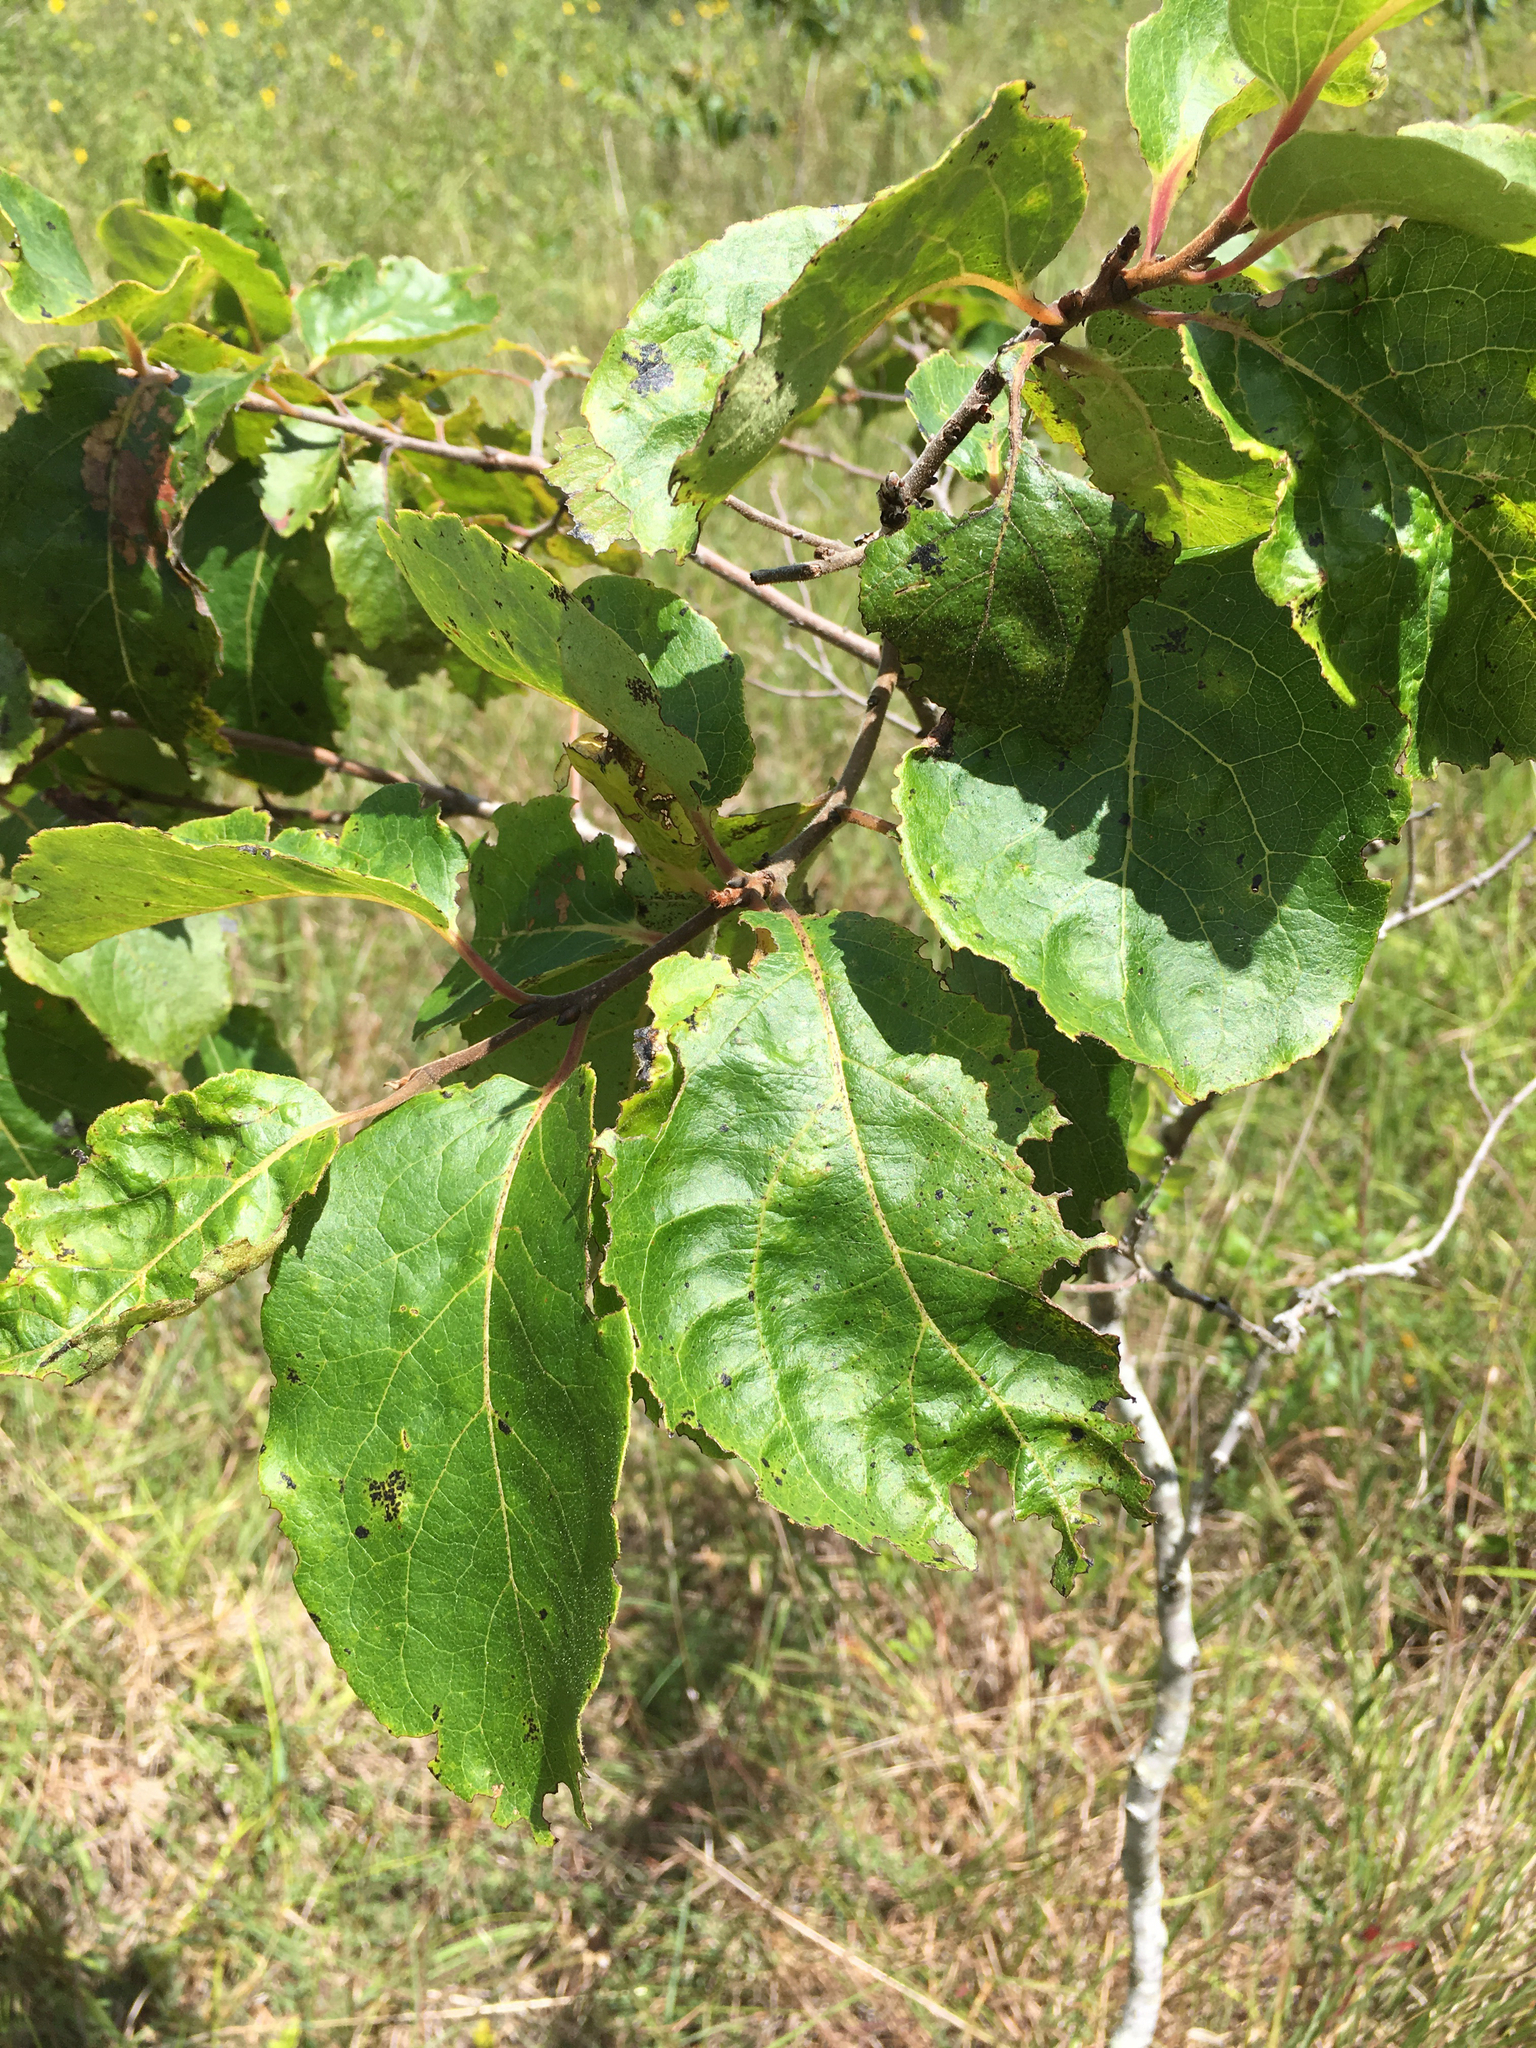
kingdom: Plantae
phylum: Tracheophyta
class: Magnoliopsida
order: Ericales
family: Ebenaceae
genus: Diospyros
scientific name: Diospyros virginiana
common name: Persimmon
